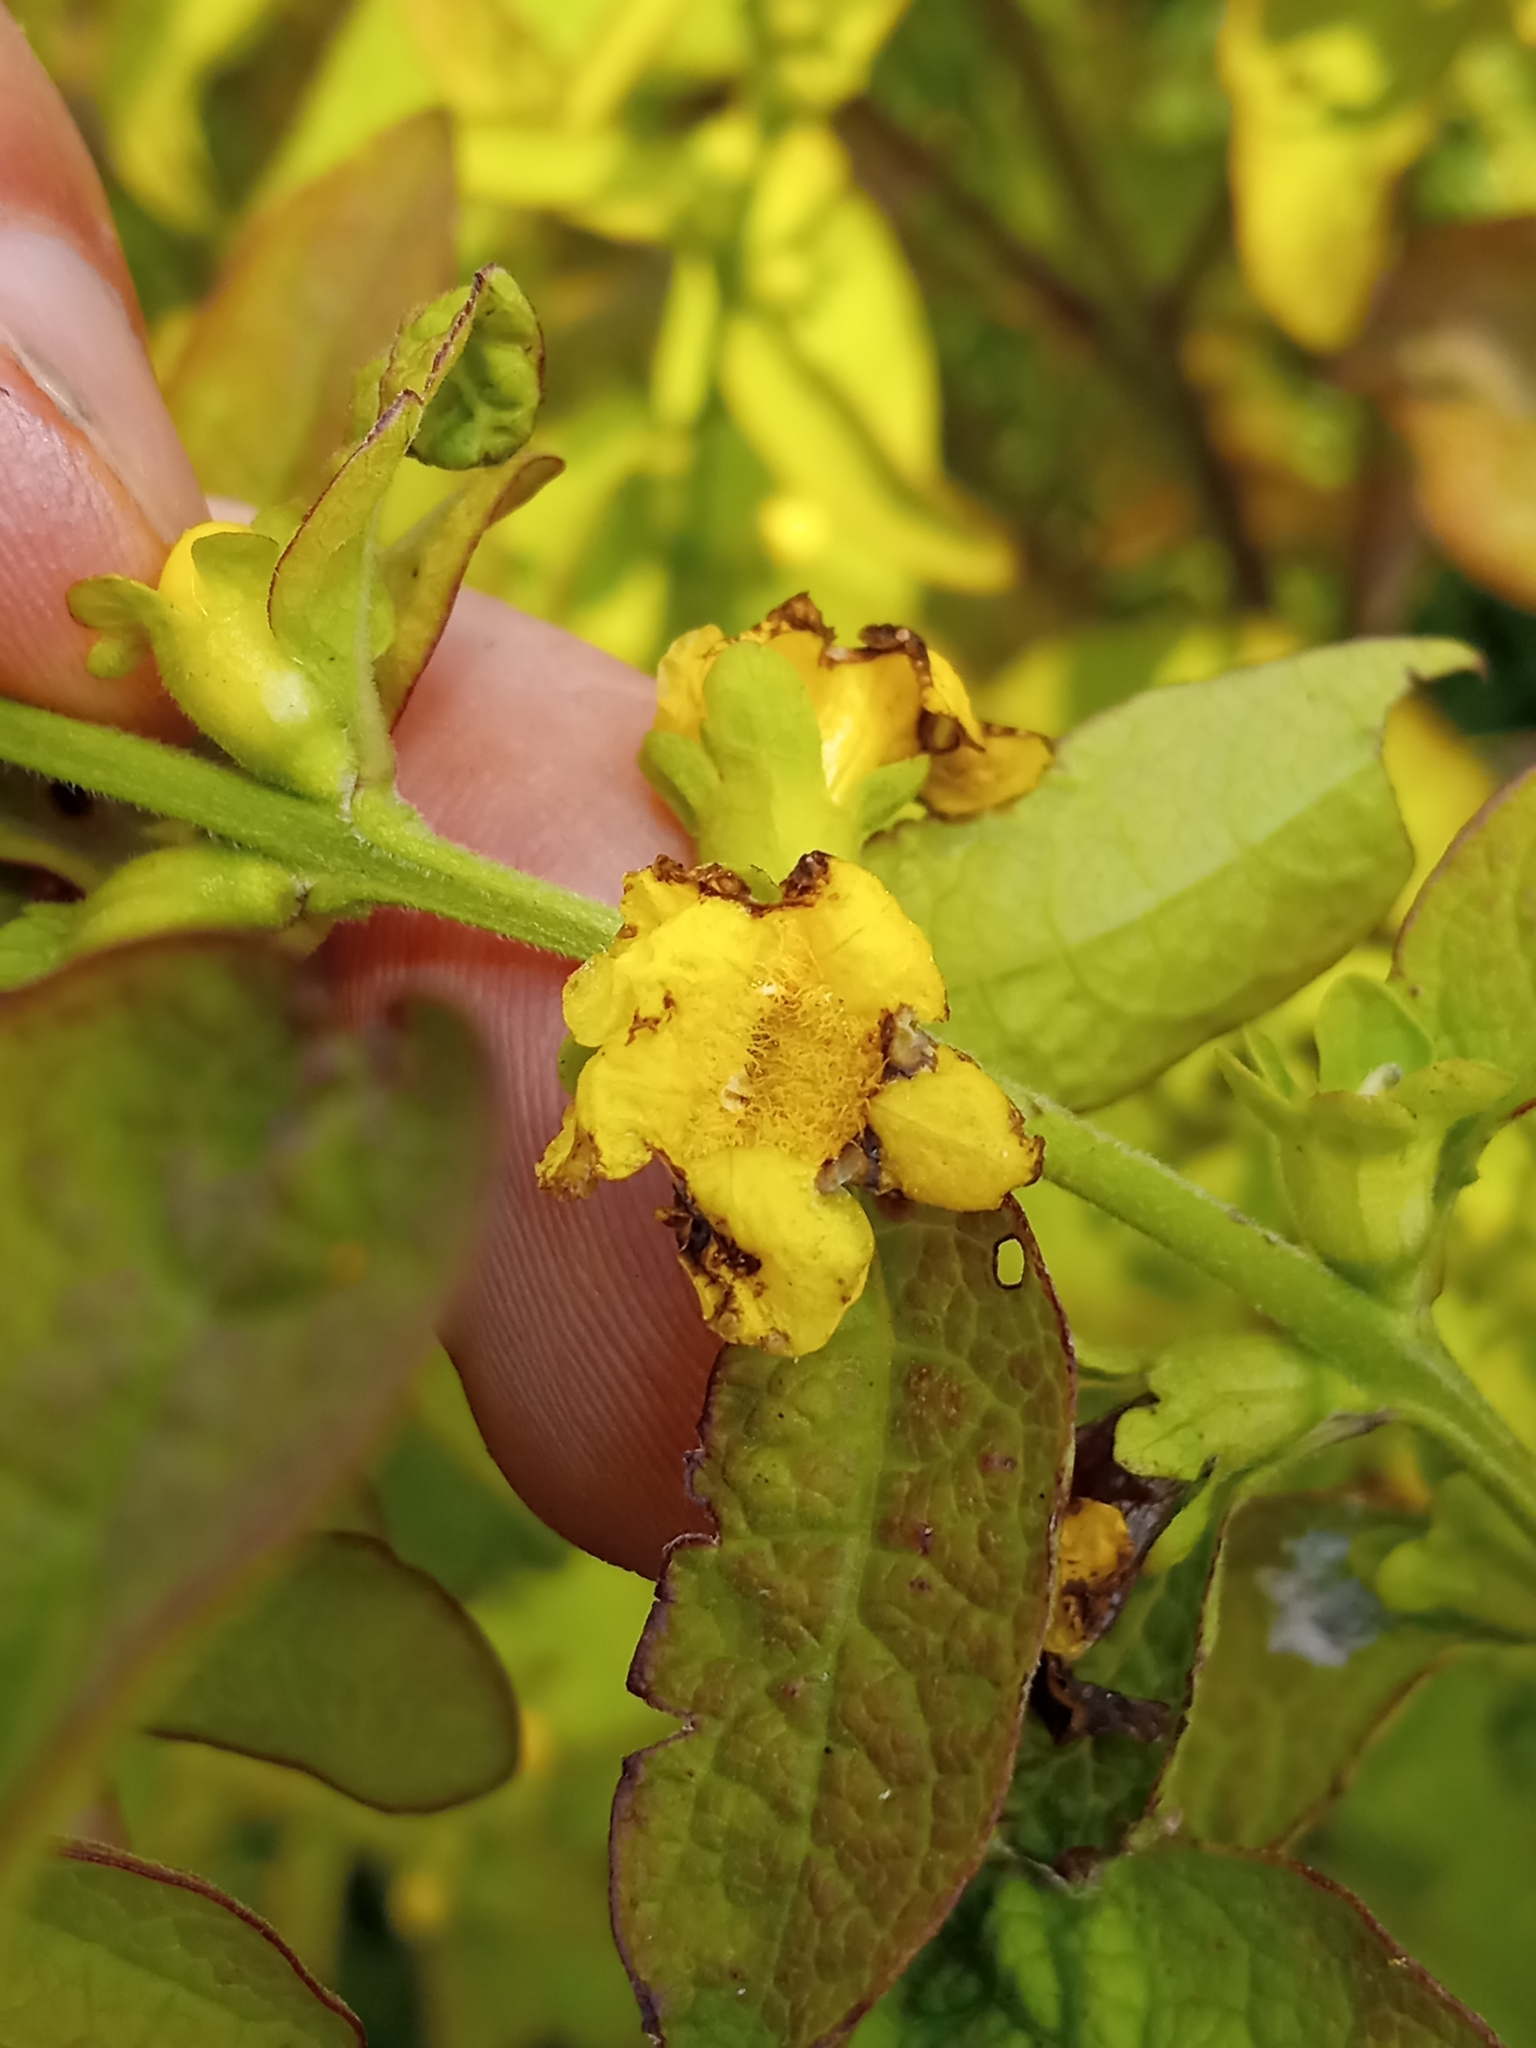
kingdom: Plantae
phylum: Tracheophyta
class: Magnoliopsida
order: Lamiales
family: Orobanchaceae
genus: Dasistoma
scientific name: Dasistoma macrophyllum
